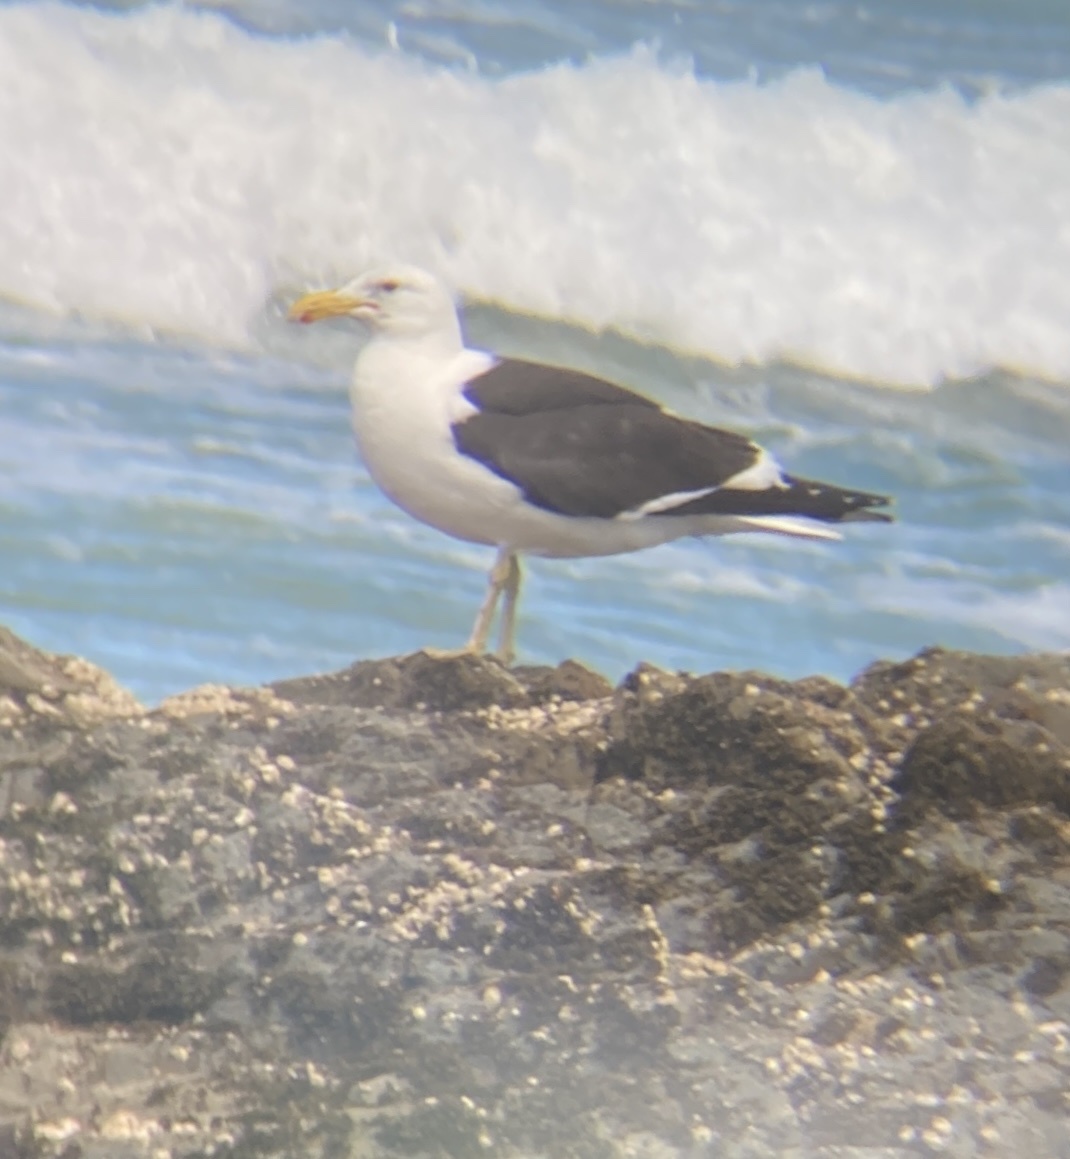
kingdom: Animalia
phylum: Chordata
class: Aves
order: Charadriiformes
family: Laridae
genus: Larus
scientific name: Larus dominicanus
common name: Kelp gull
